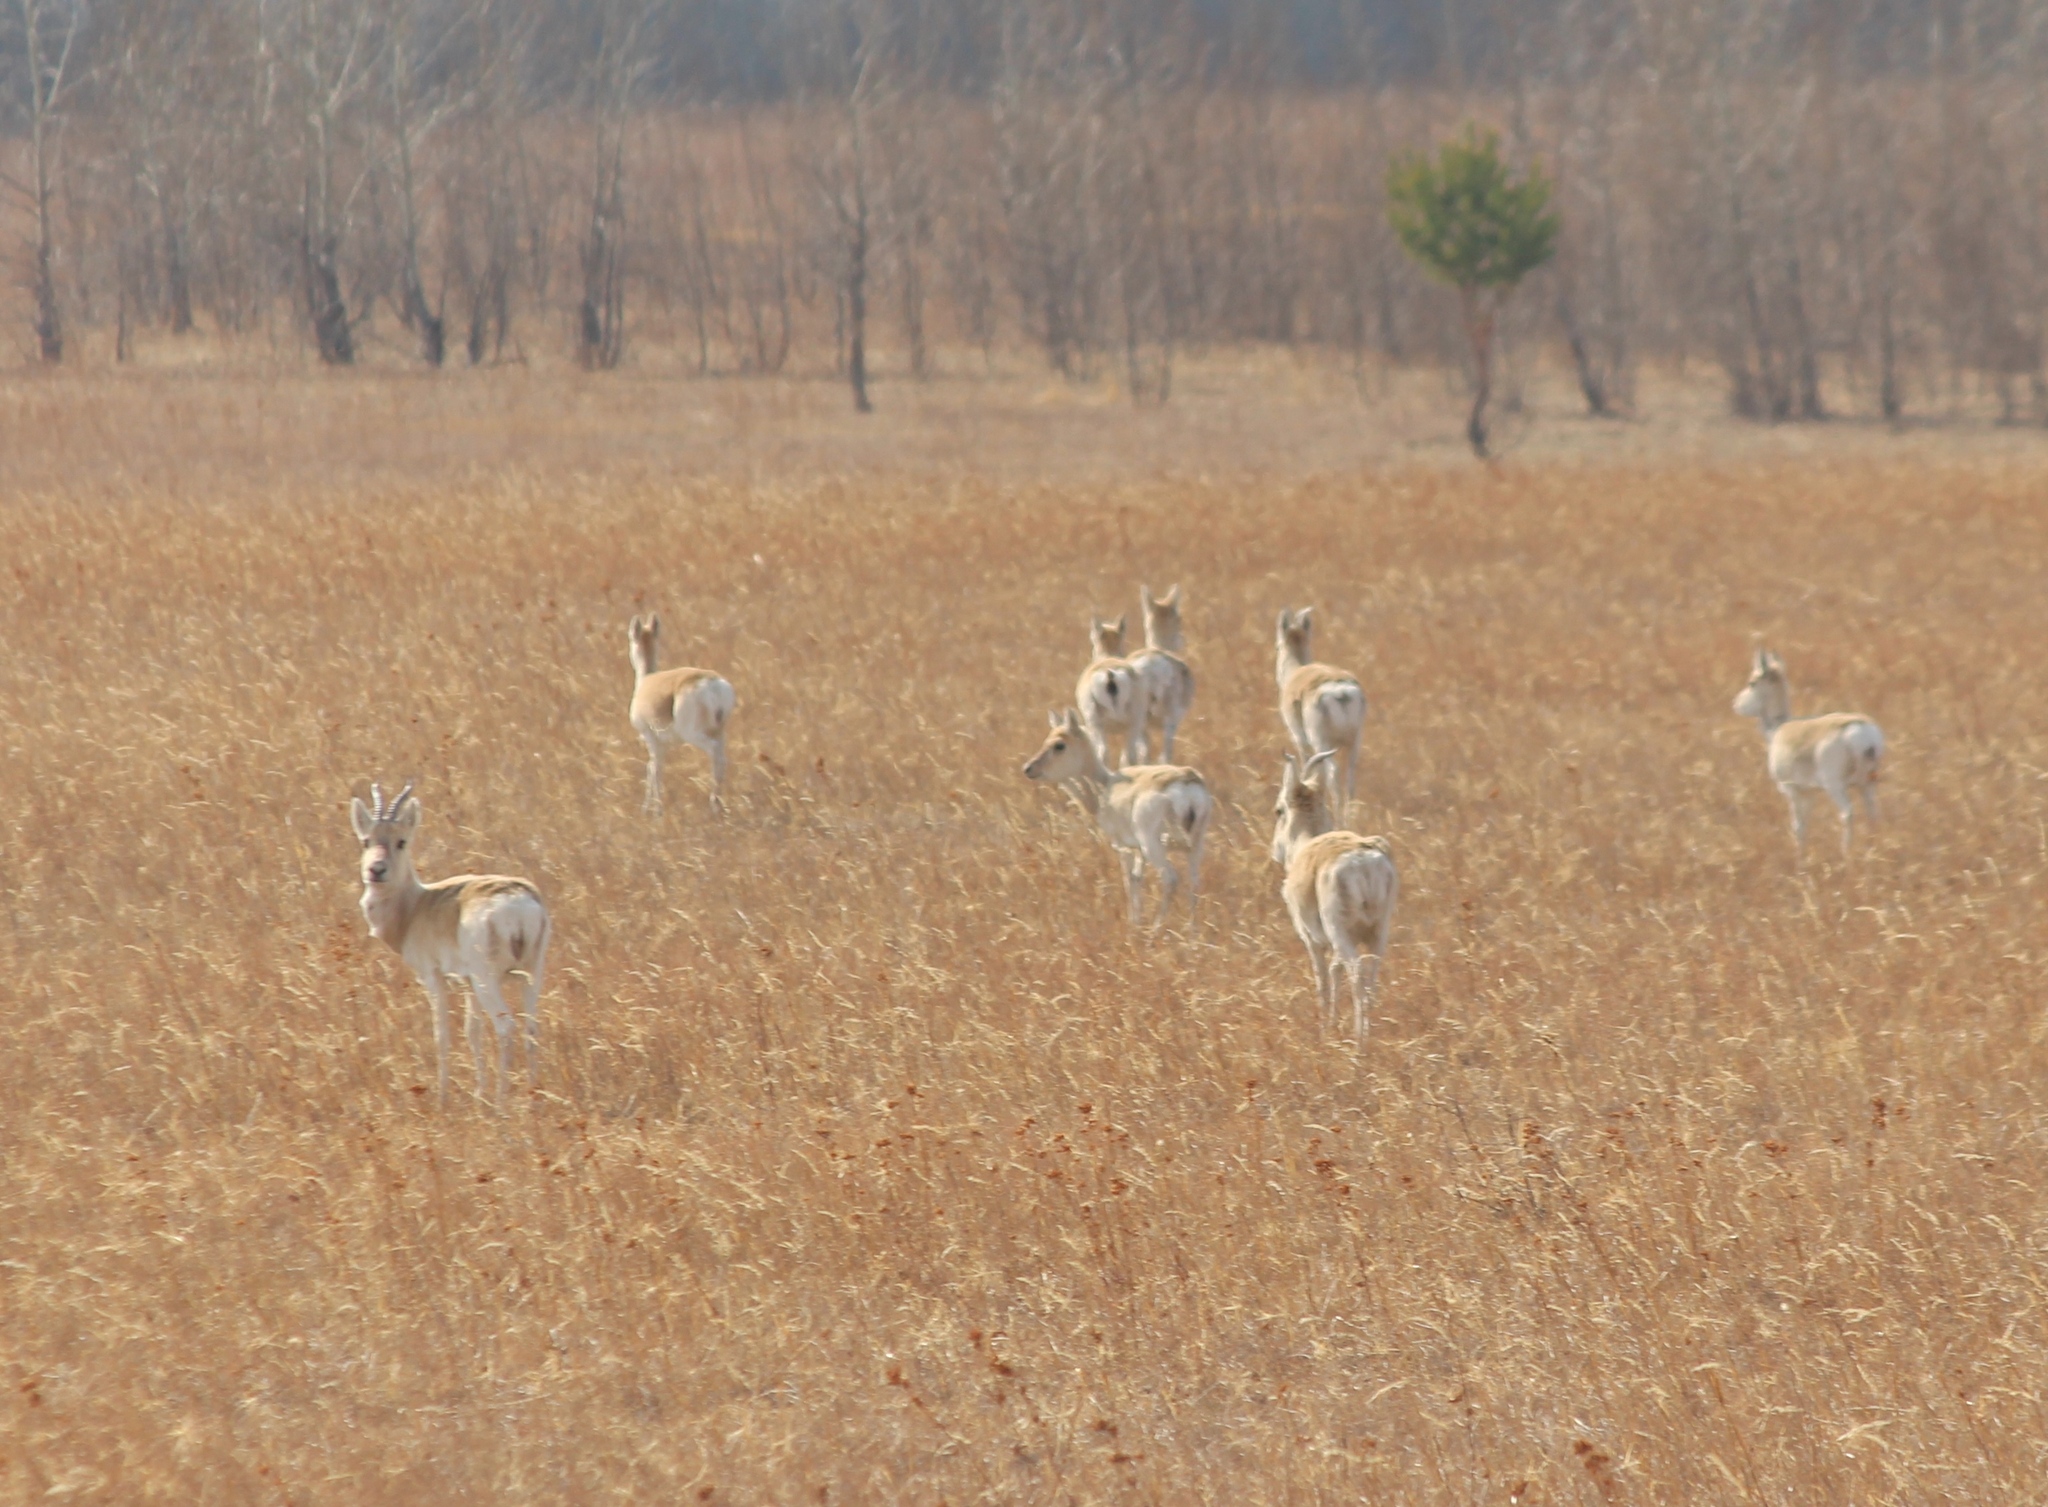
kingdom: Animalia
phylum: Chordata
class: Mammalia
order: Artiodactyla
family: Bovidae
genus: Procapra
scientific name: Procapra gutturosa
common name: Mongolian gazelle
